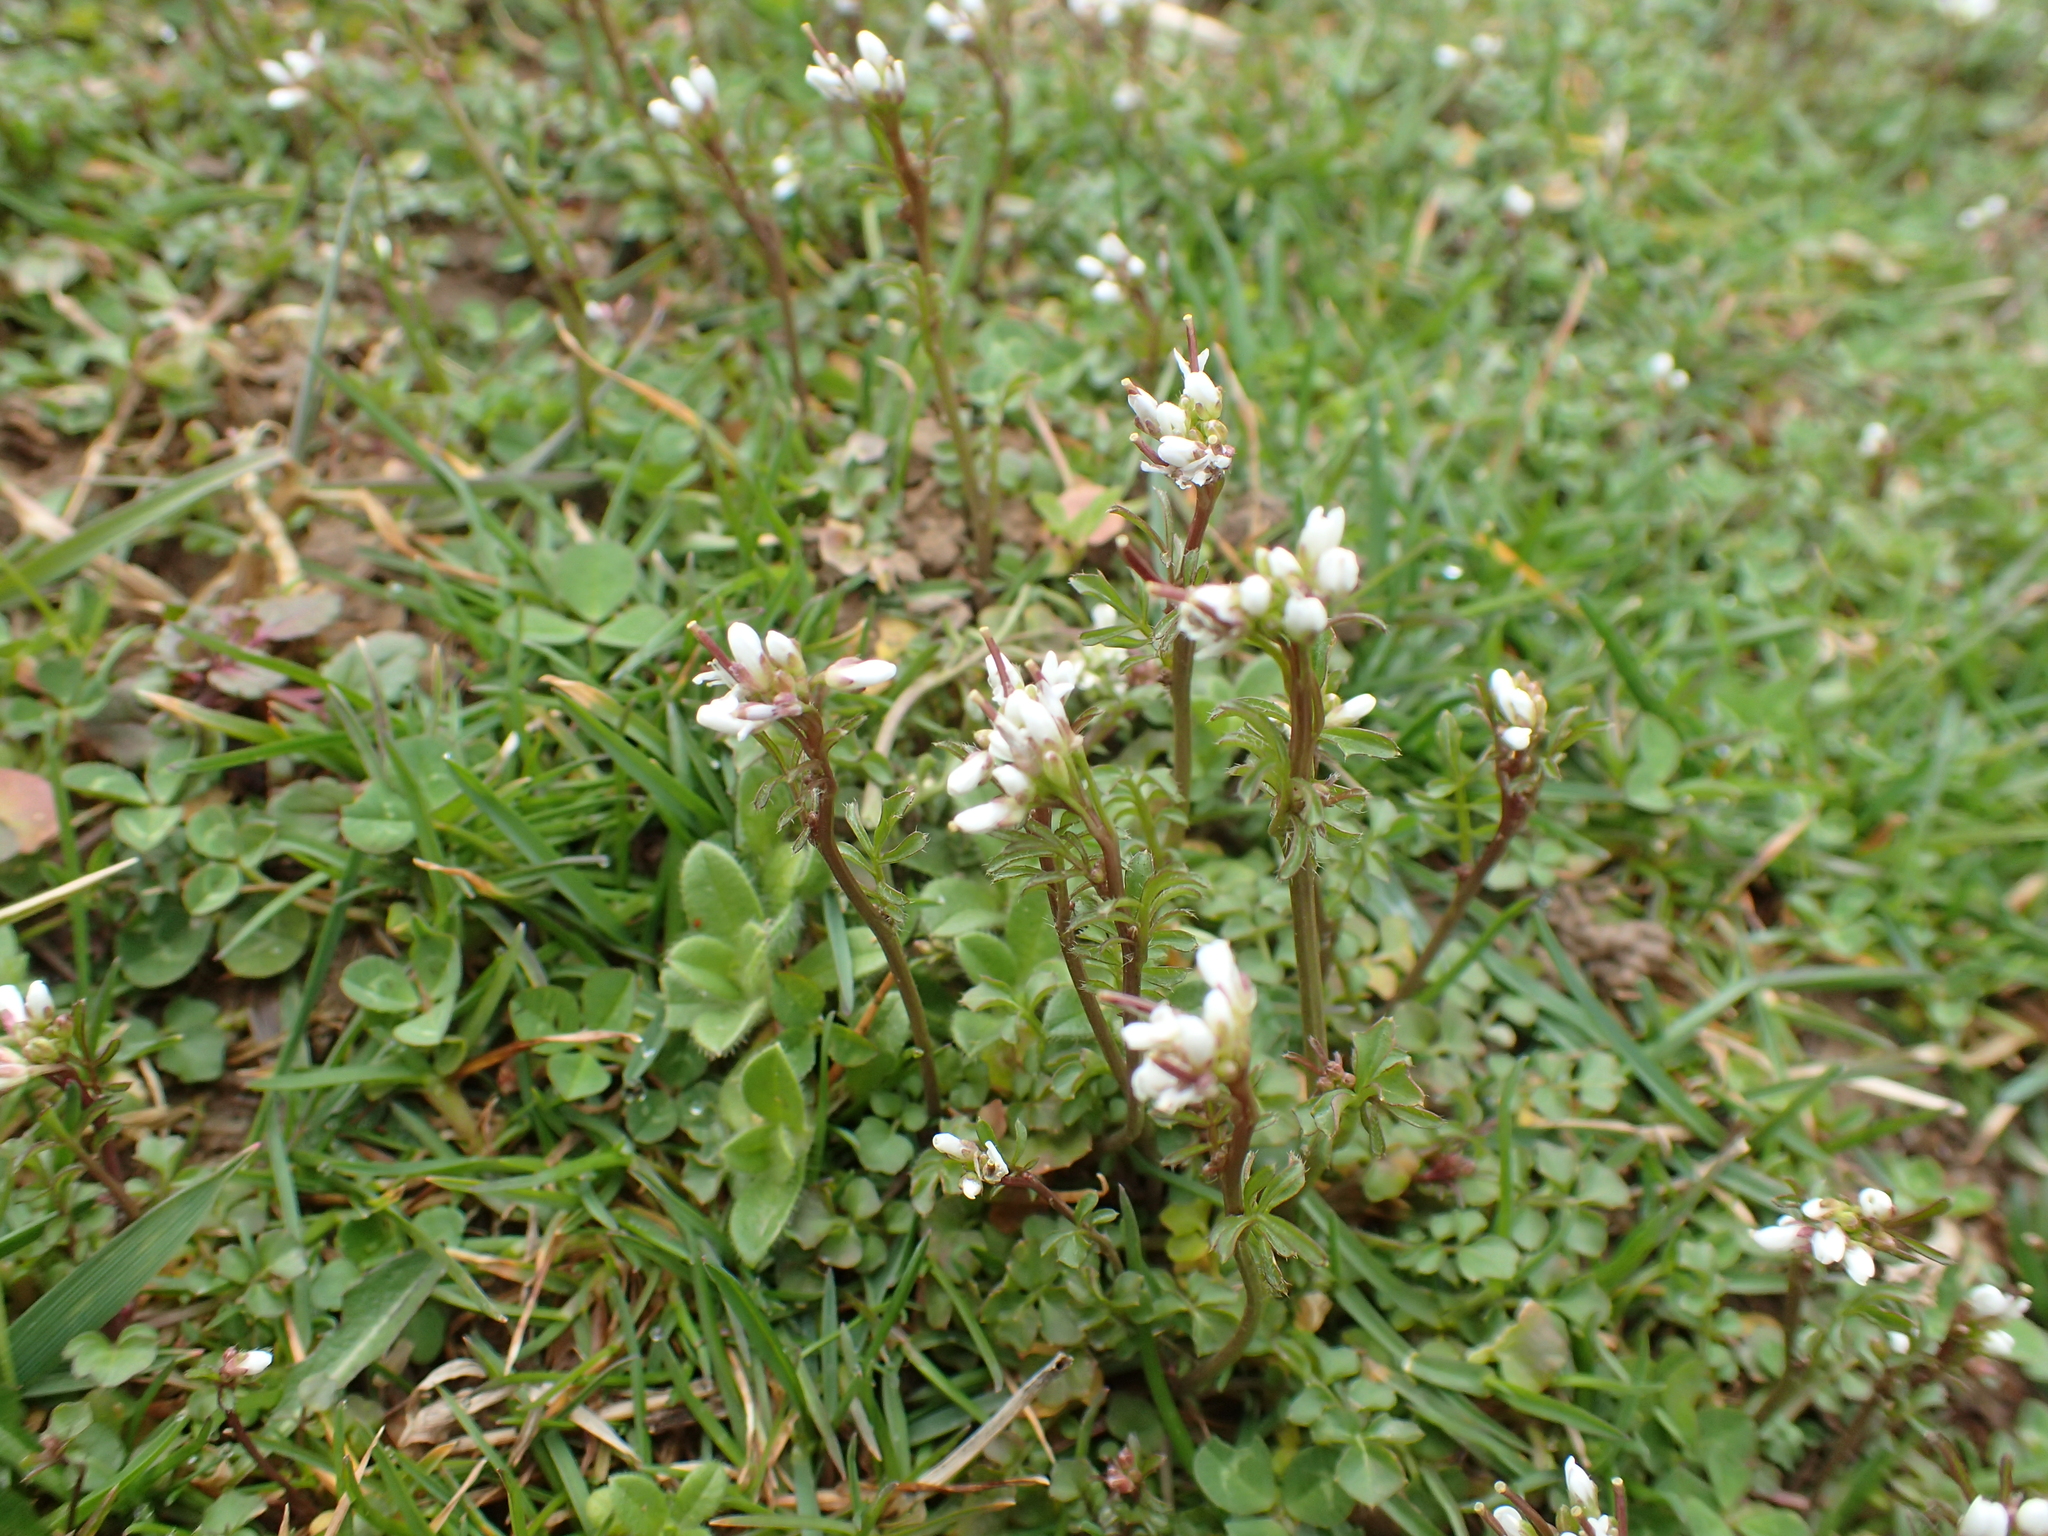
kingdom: Plantae
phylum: Tracheophyta
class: Magnoliopsida
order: Brassicales
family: Brassicaceae
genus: Cardamine
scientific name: Cardamine hirsuta
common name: Hairy bittercress
